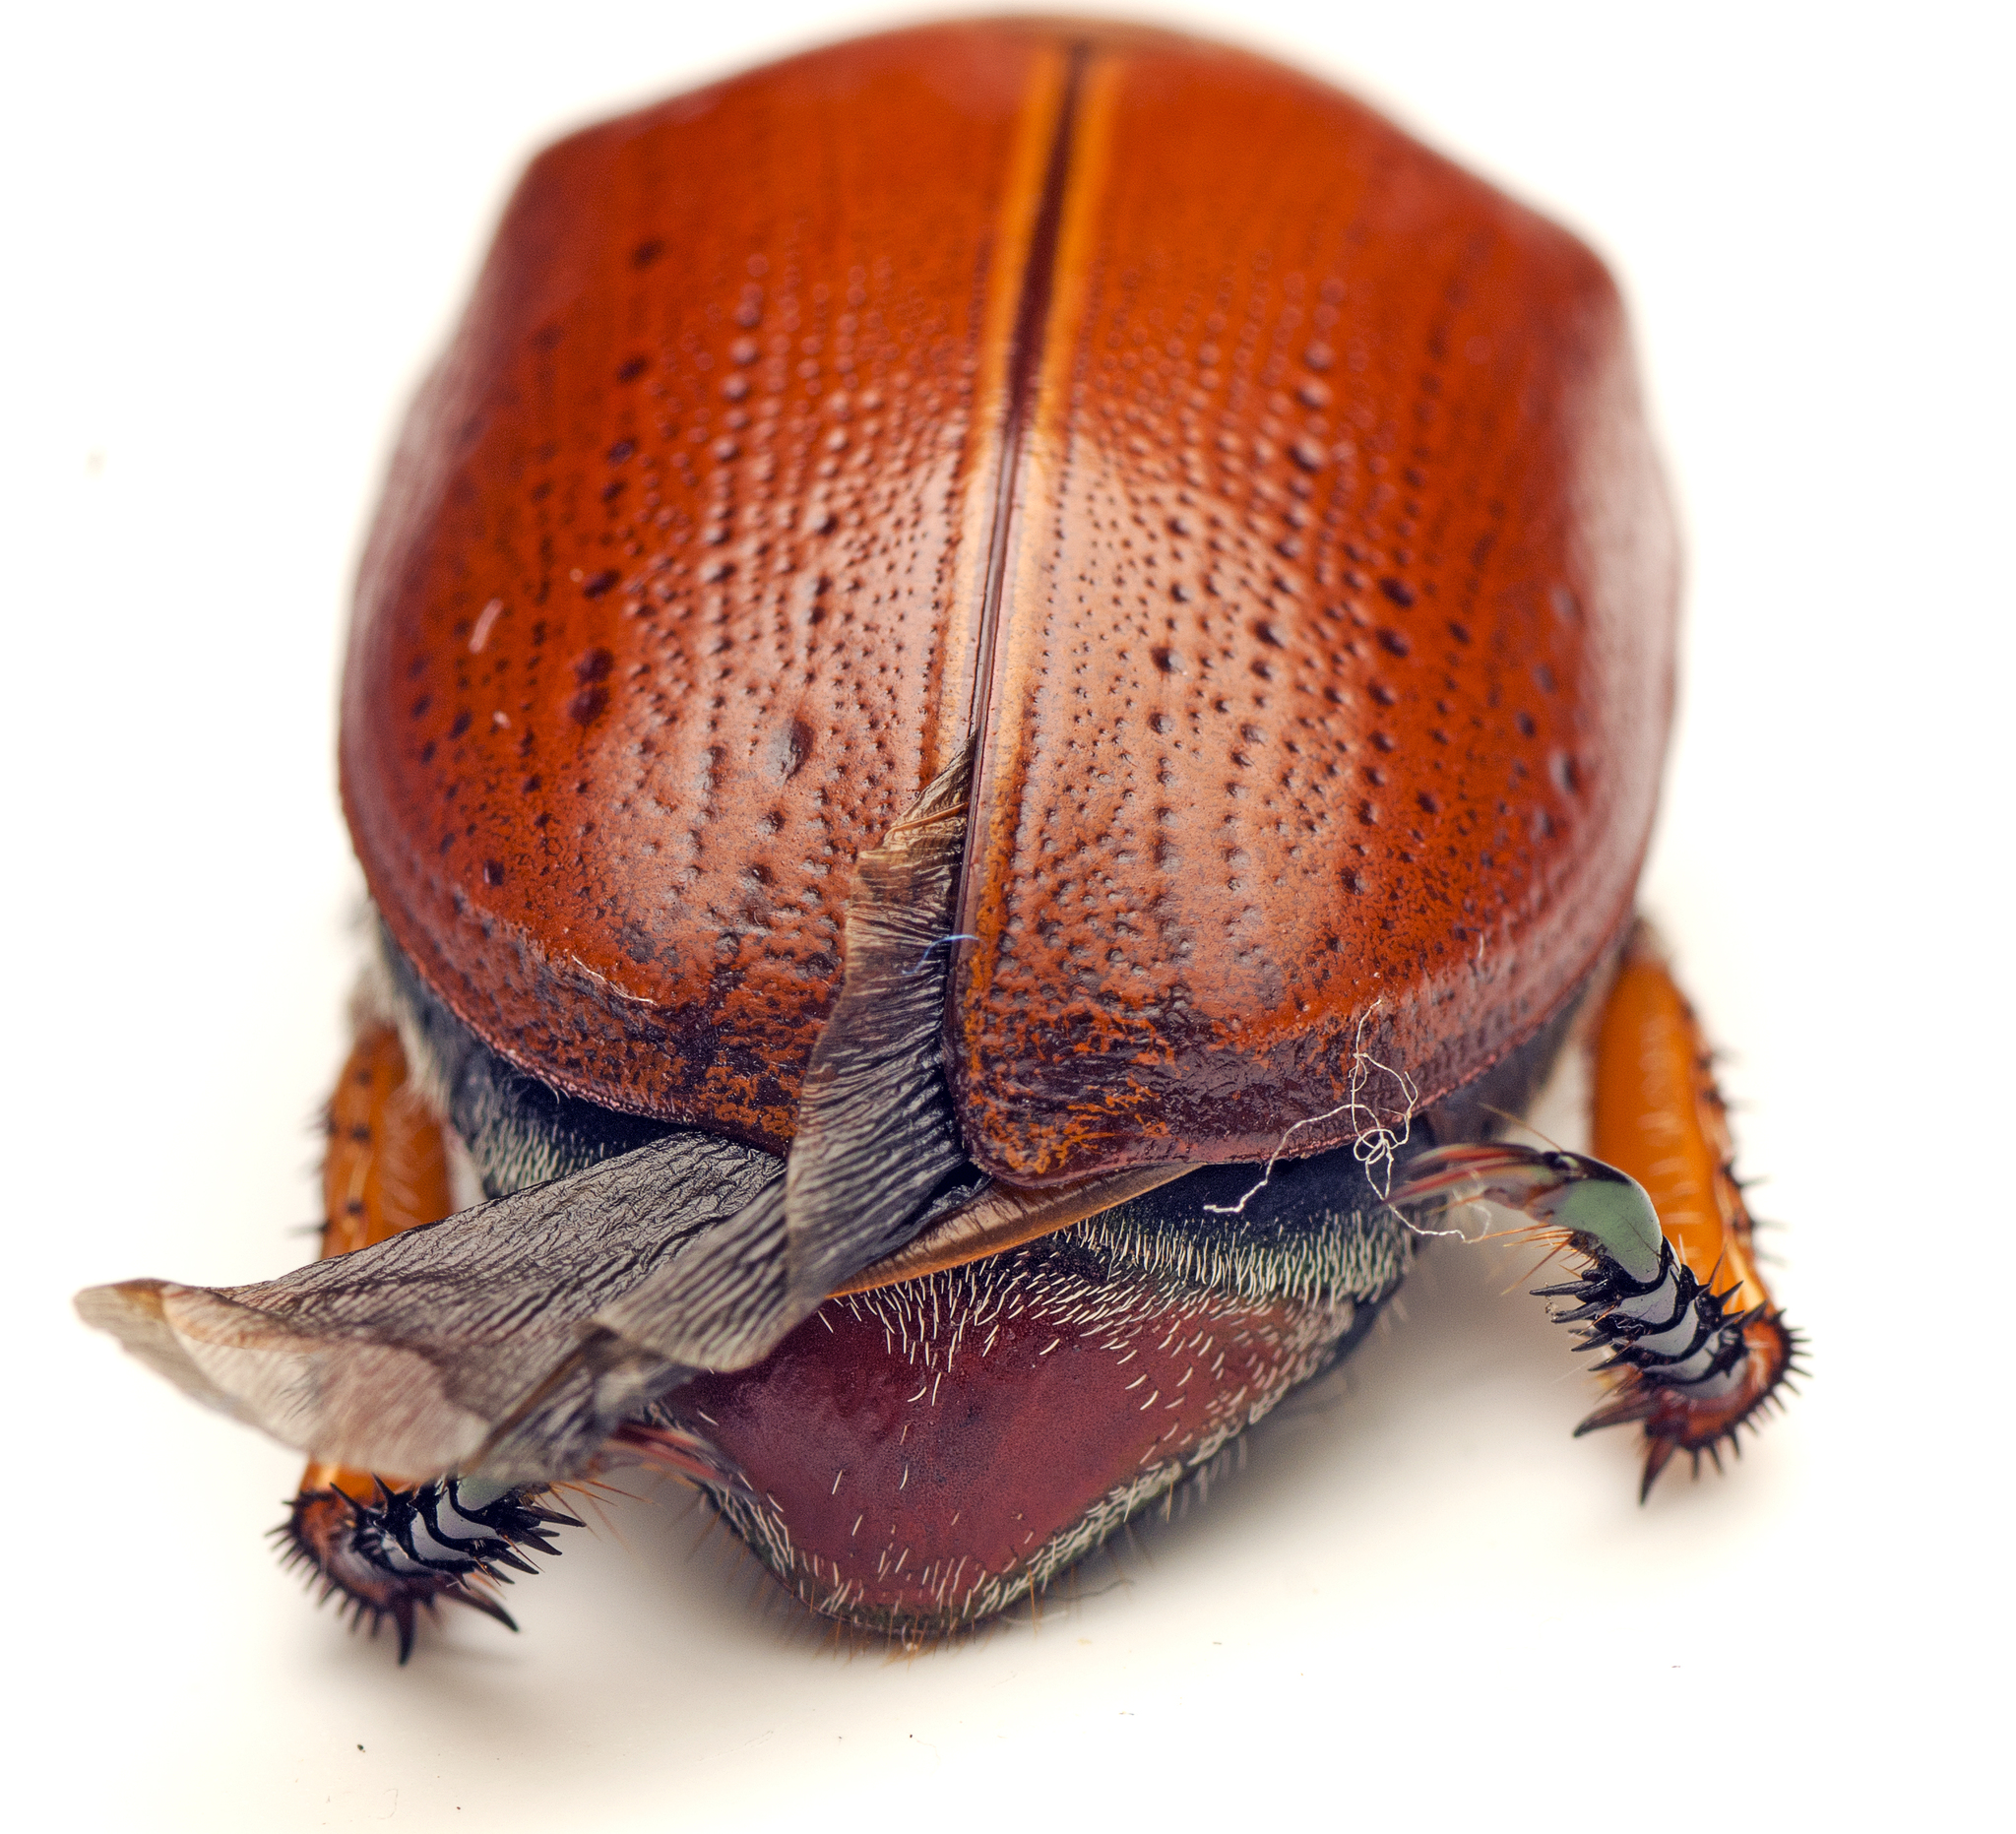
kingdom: Animalia
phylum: Arthropoda
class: Insecta
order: Coleoptera
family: Scarabaeidae
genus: Anoplognathus
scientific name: Anoplognathus porosus
